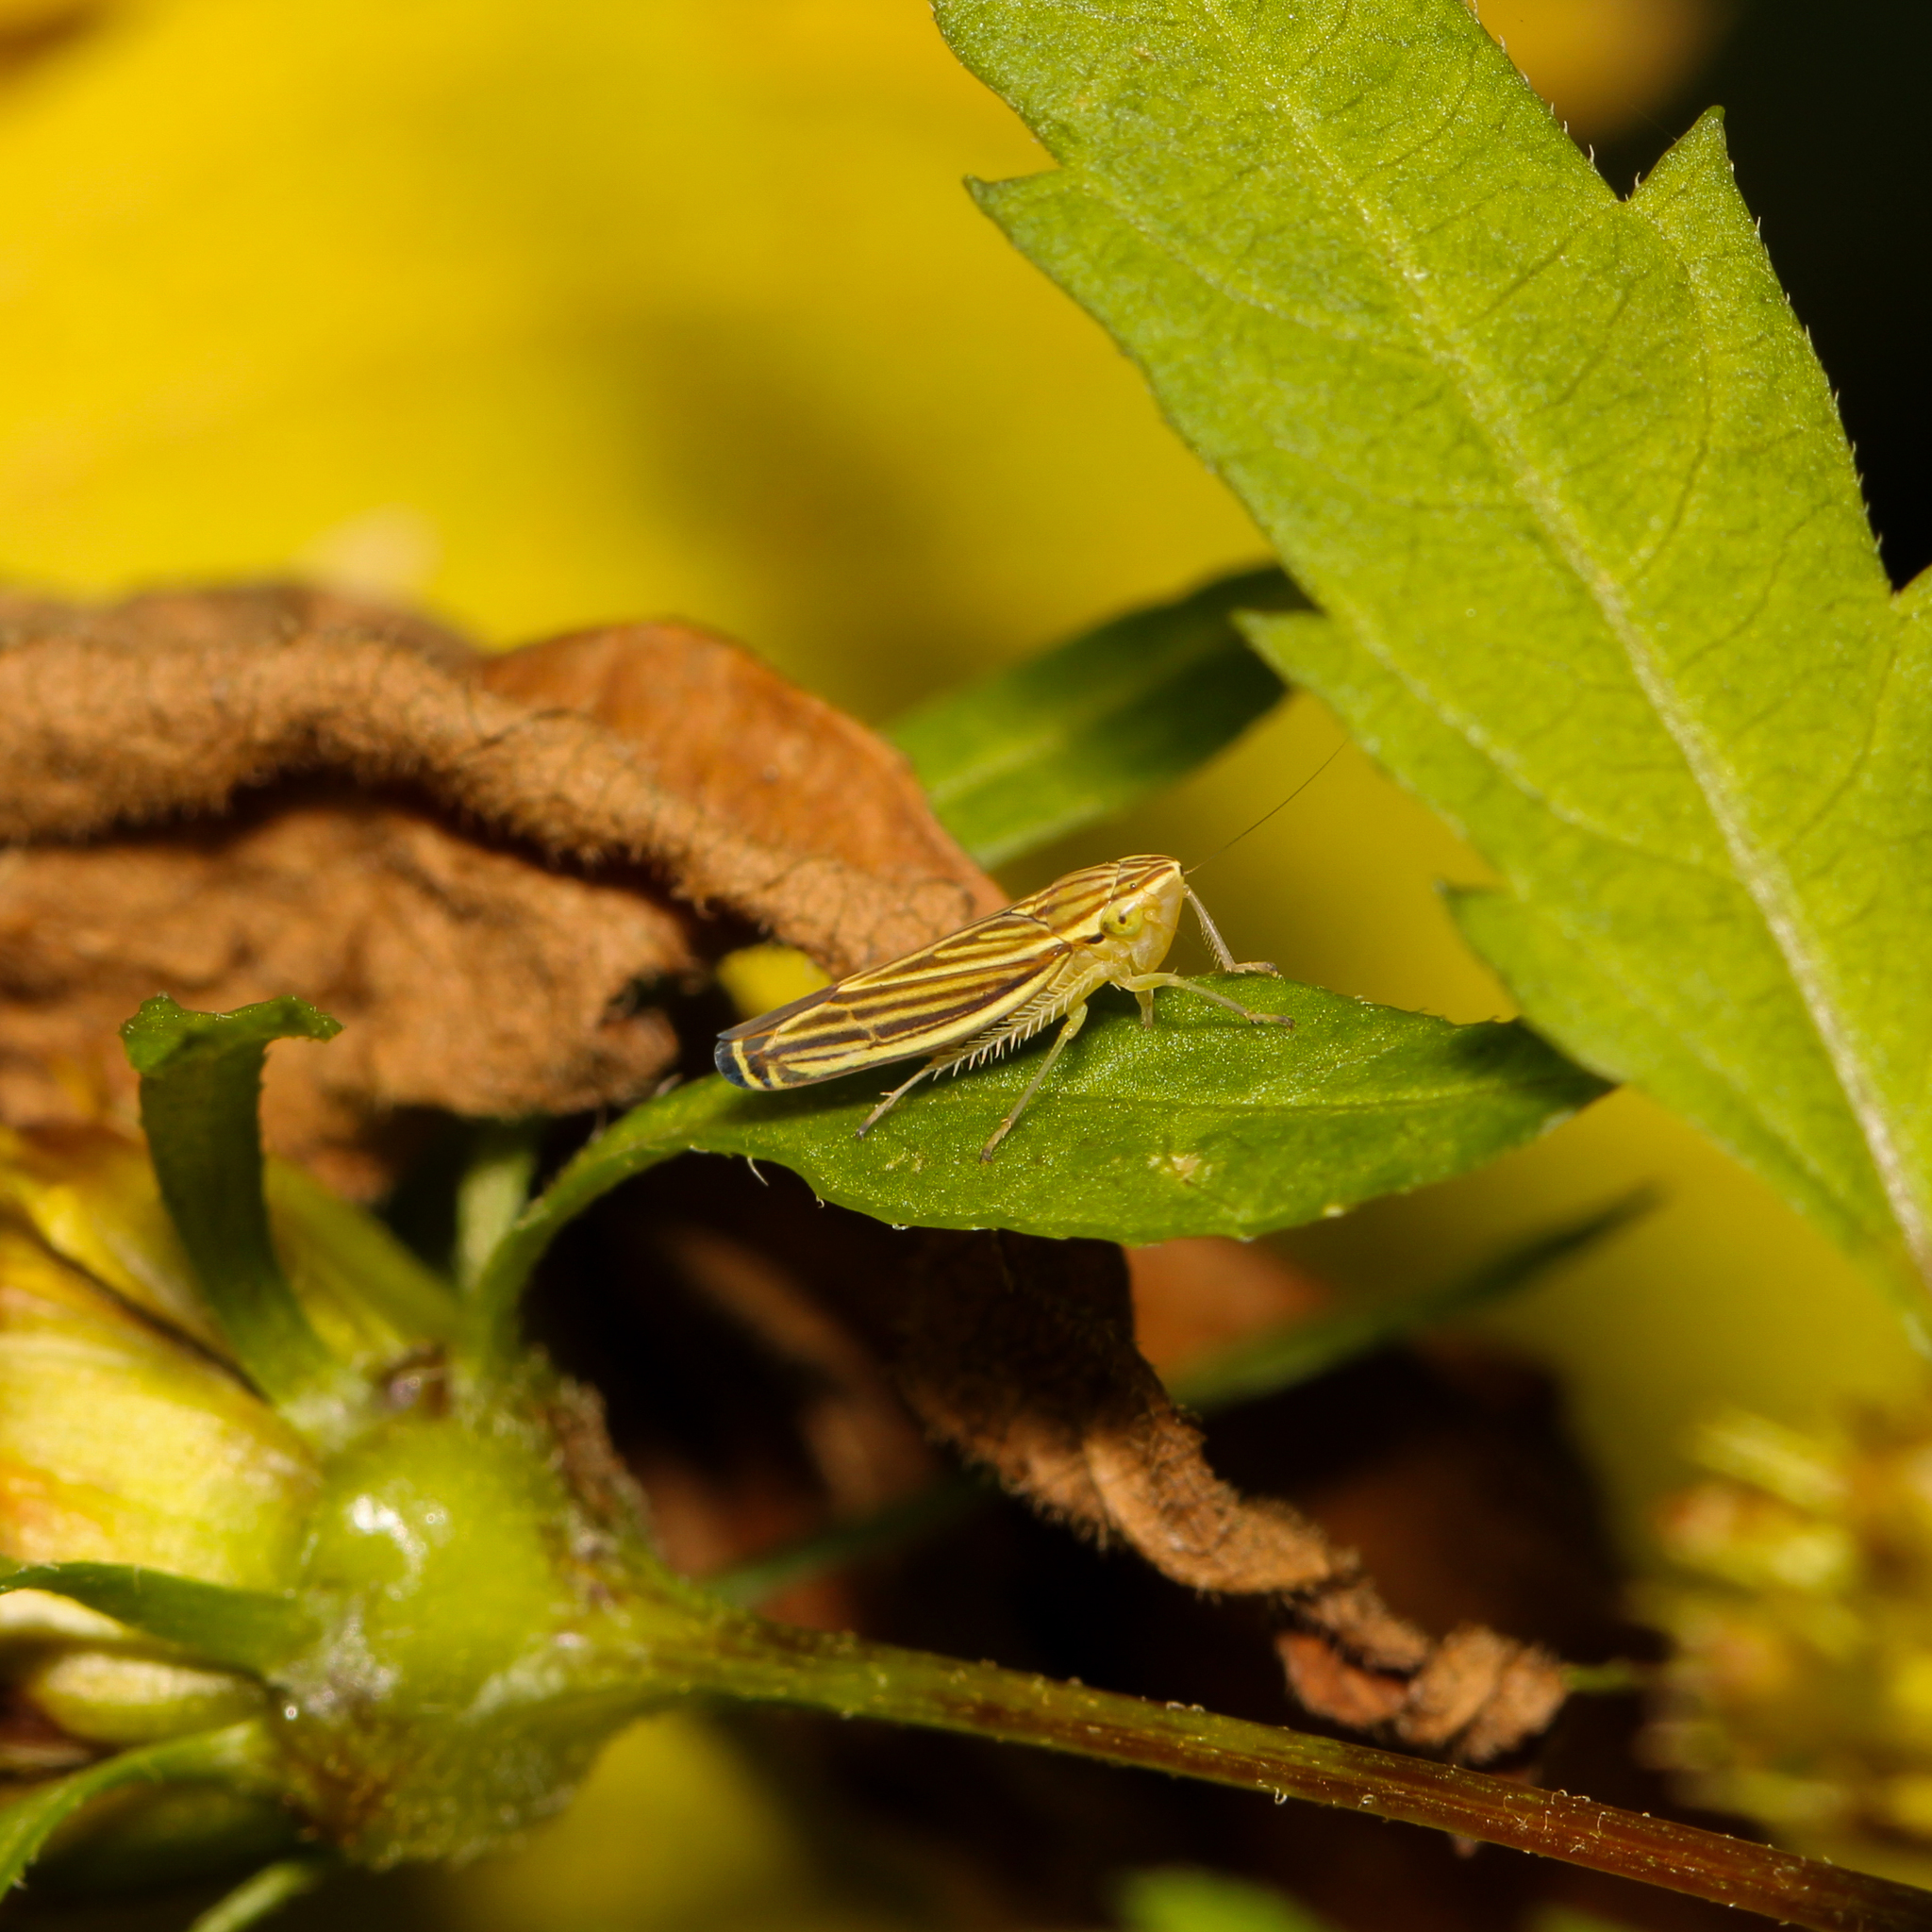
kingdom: Animalia
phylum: Arthropoda
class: Insecta
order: Hemiptera
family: Cicadellidae
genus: Sibovia
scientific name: Sibovia occatoria
